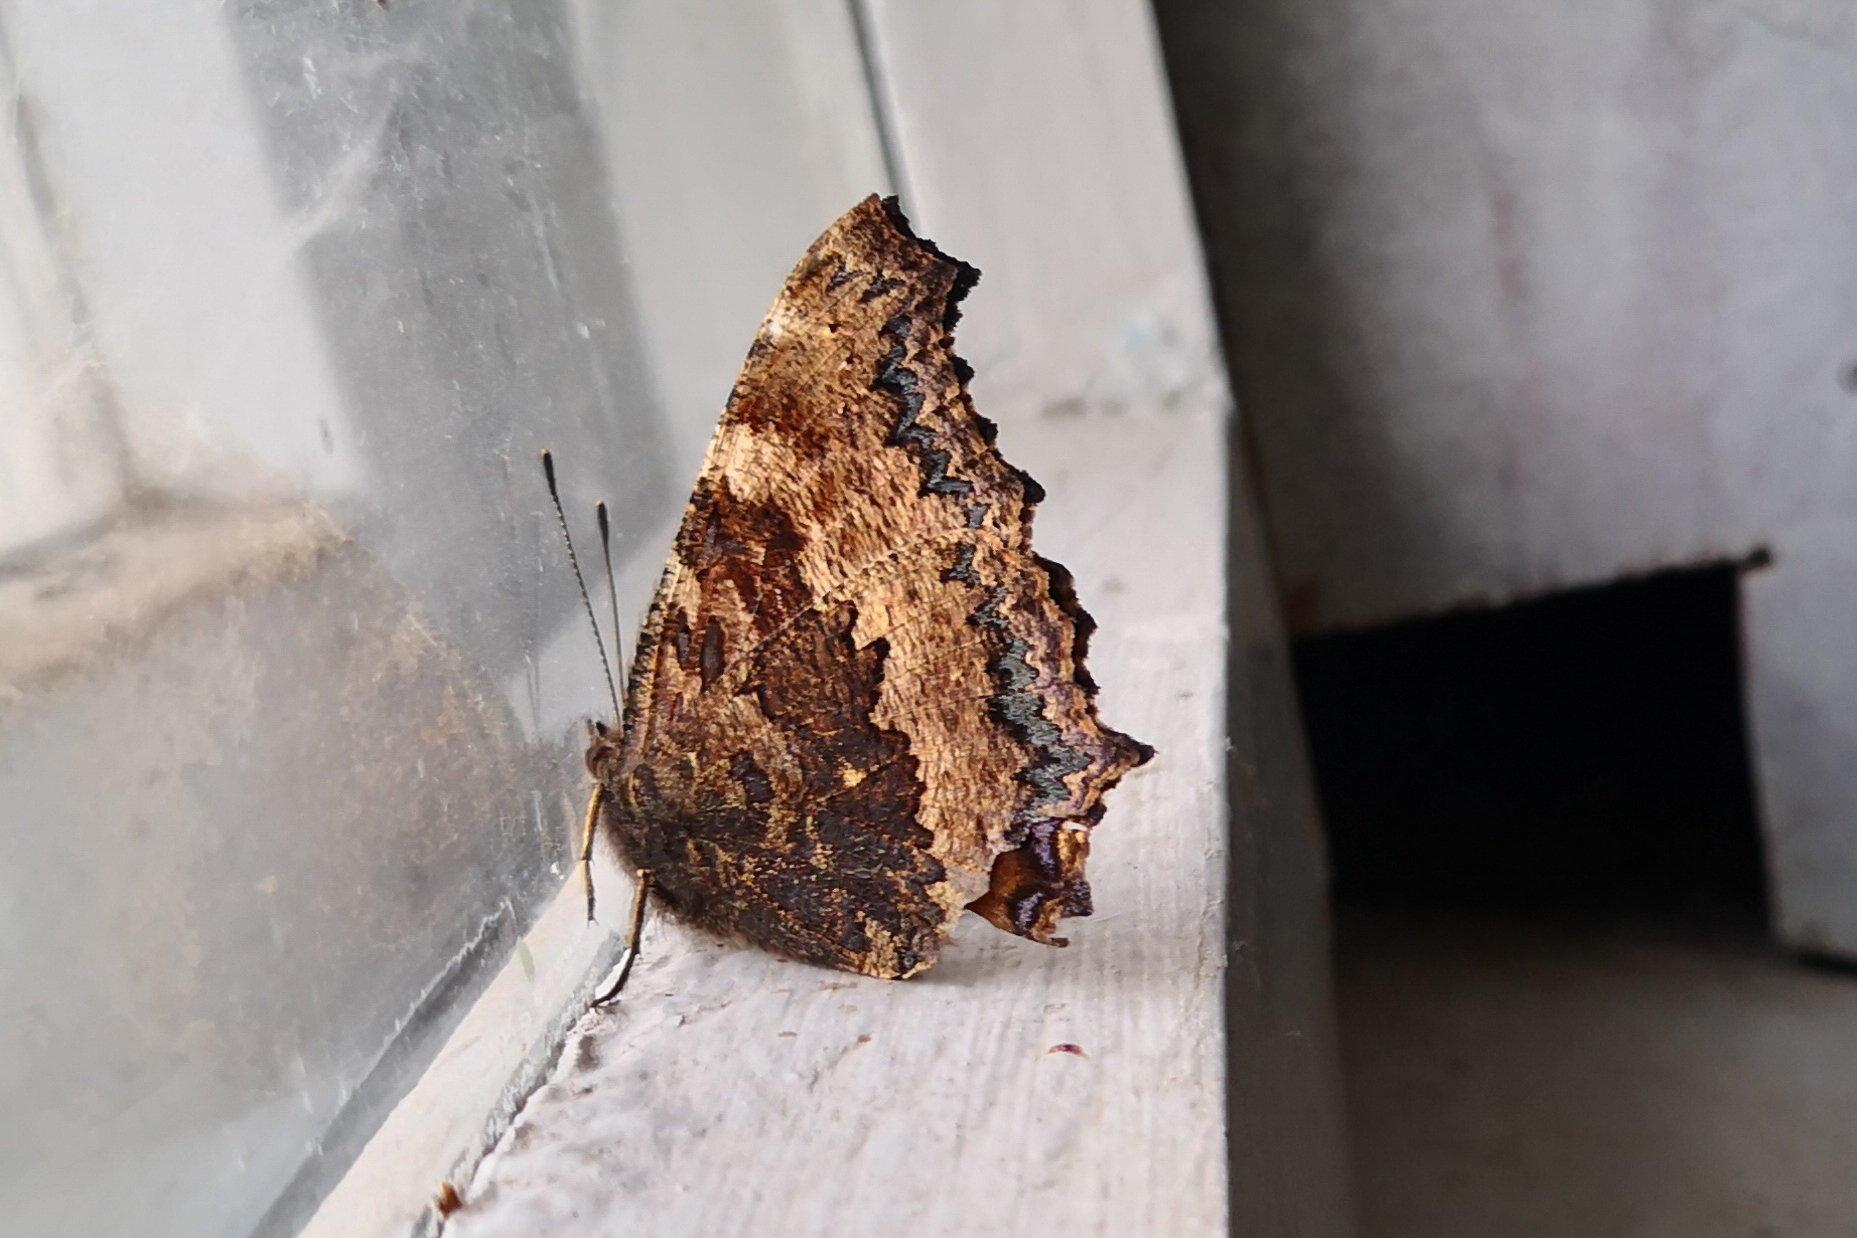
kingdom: Animalia
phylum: Arthropoda
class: Insecta
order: Lepidoptera
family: Nymphalidae
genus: Nymphalis
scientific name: Nymphalis xanthomelas
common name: Scarce tortoiseshell
